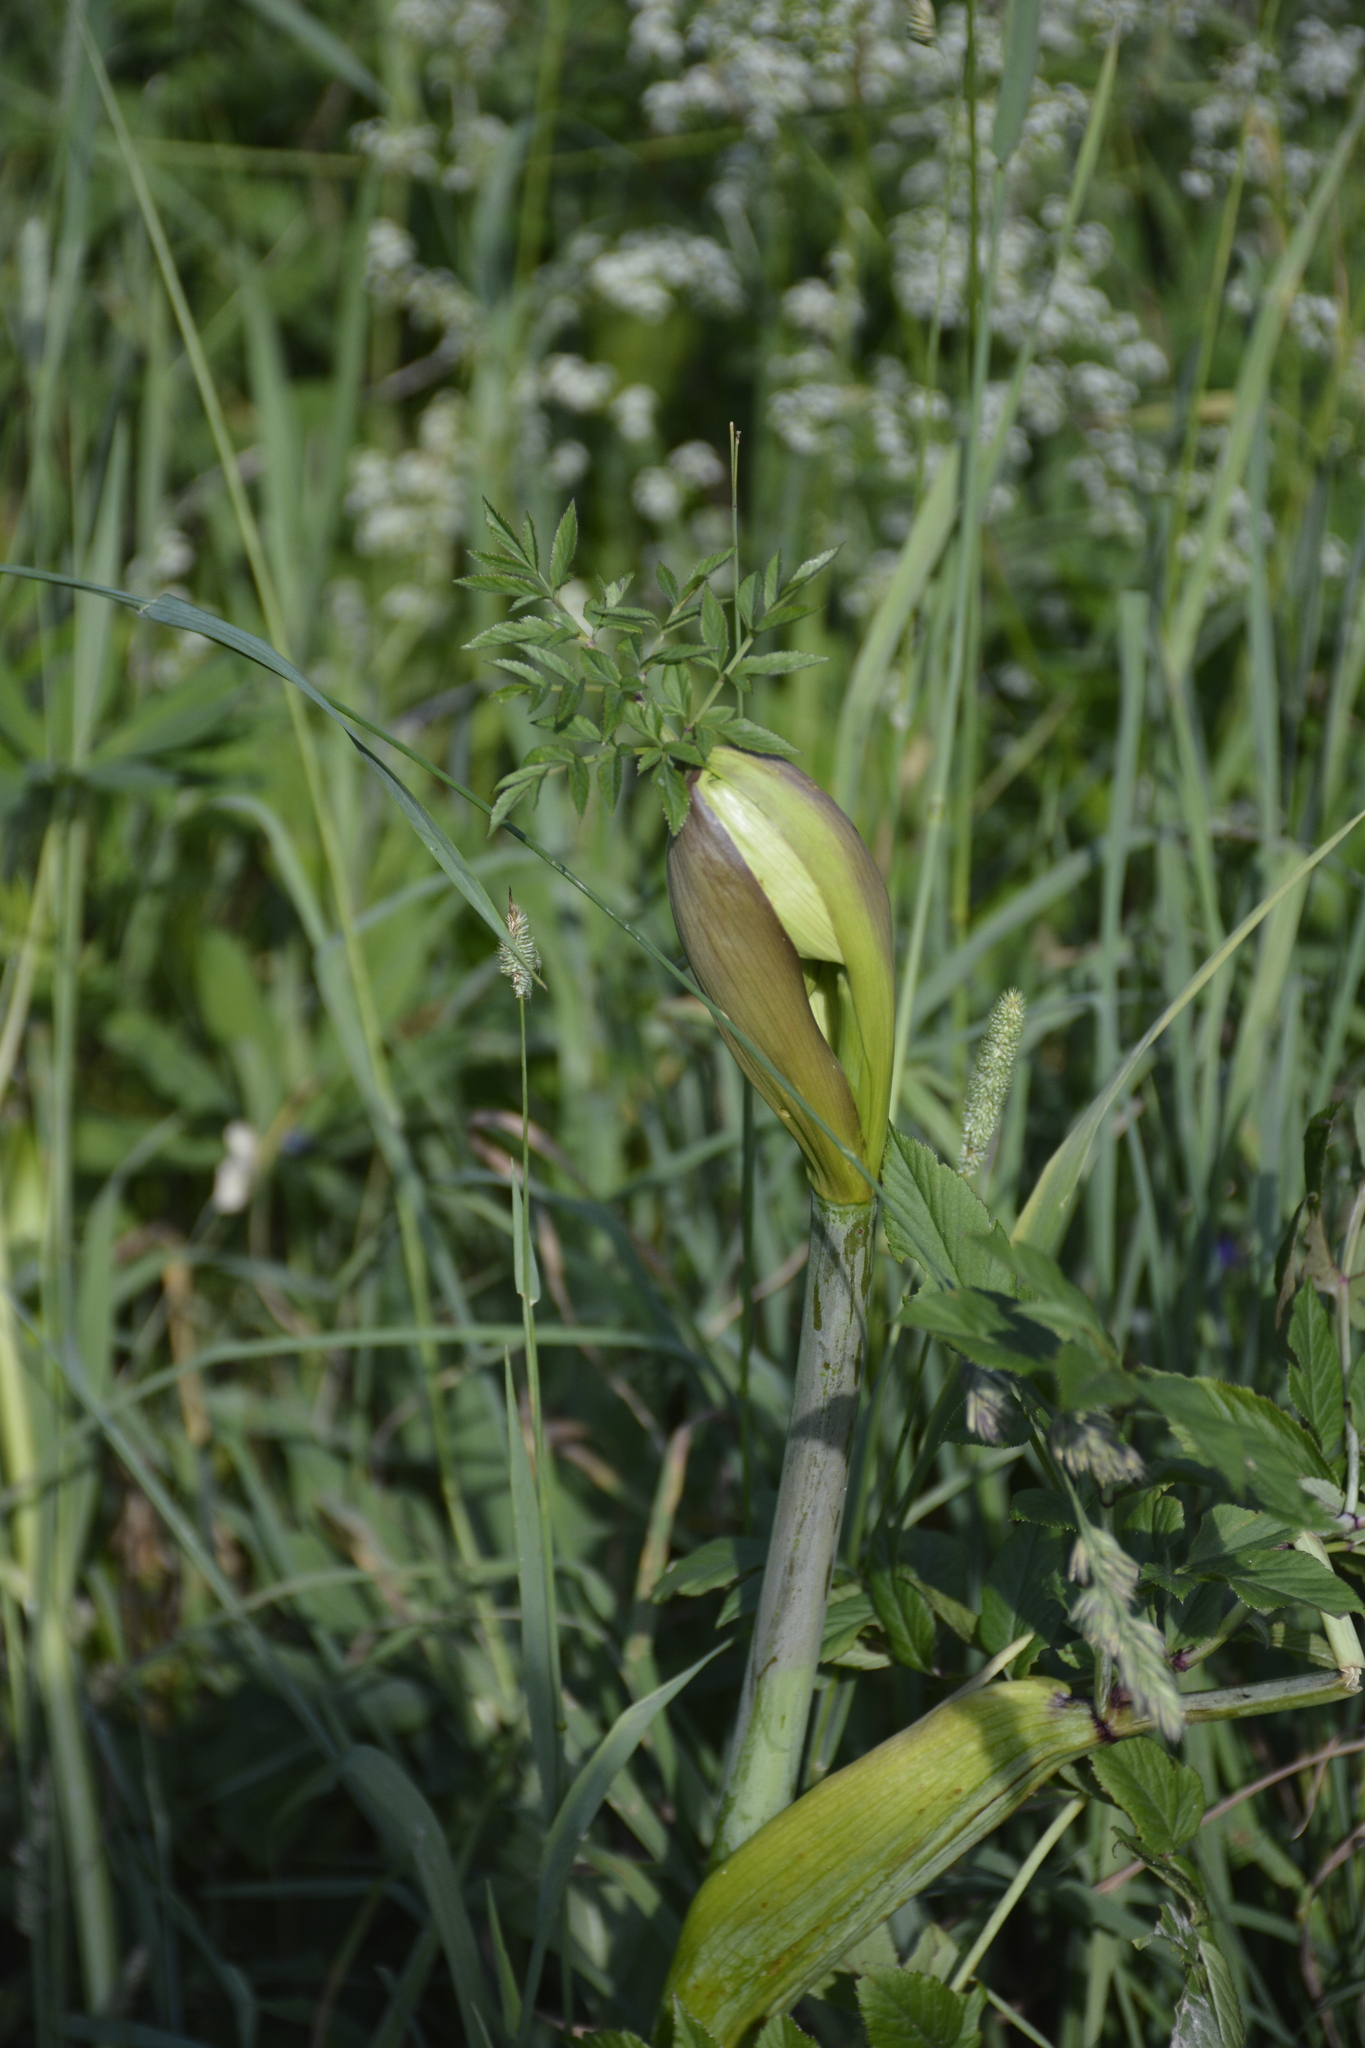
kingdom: Plantae
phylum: Tracheophyta
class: Magnoliopsida
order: Apiales
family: Apiaceae
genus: Angelica
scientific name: Angelica sylvestris
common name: Wild angelica
